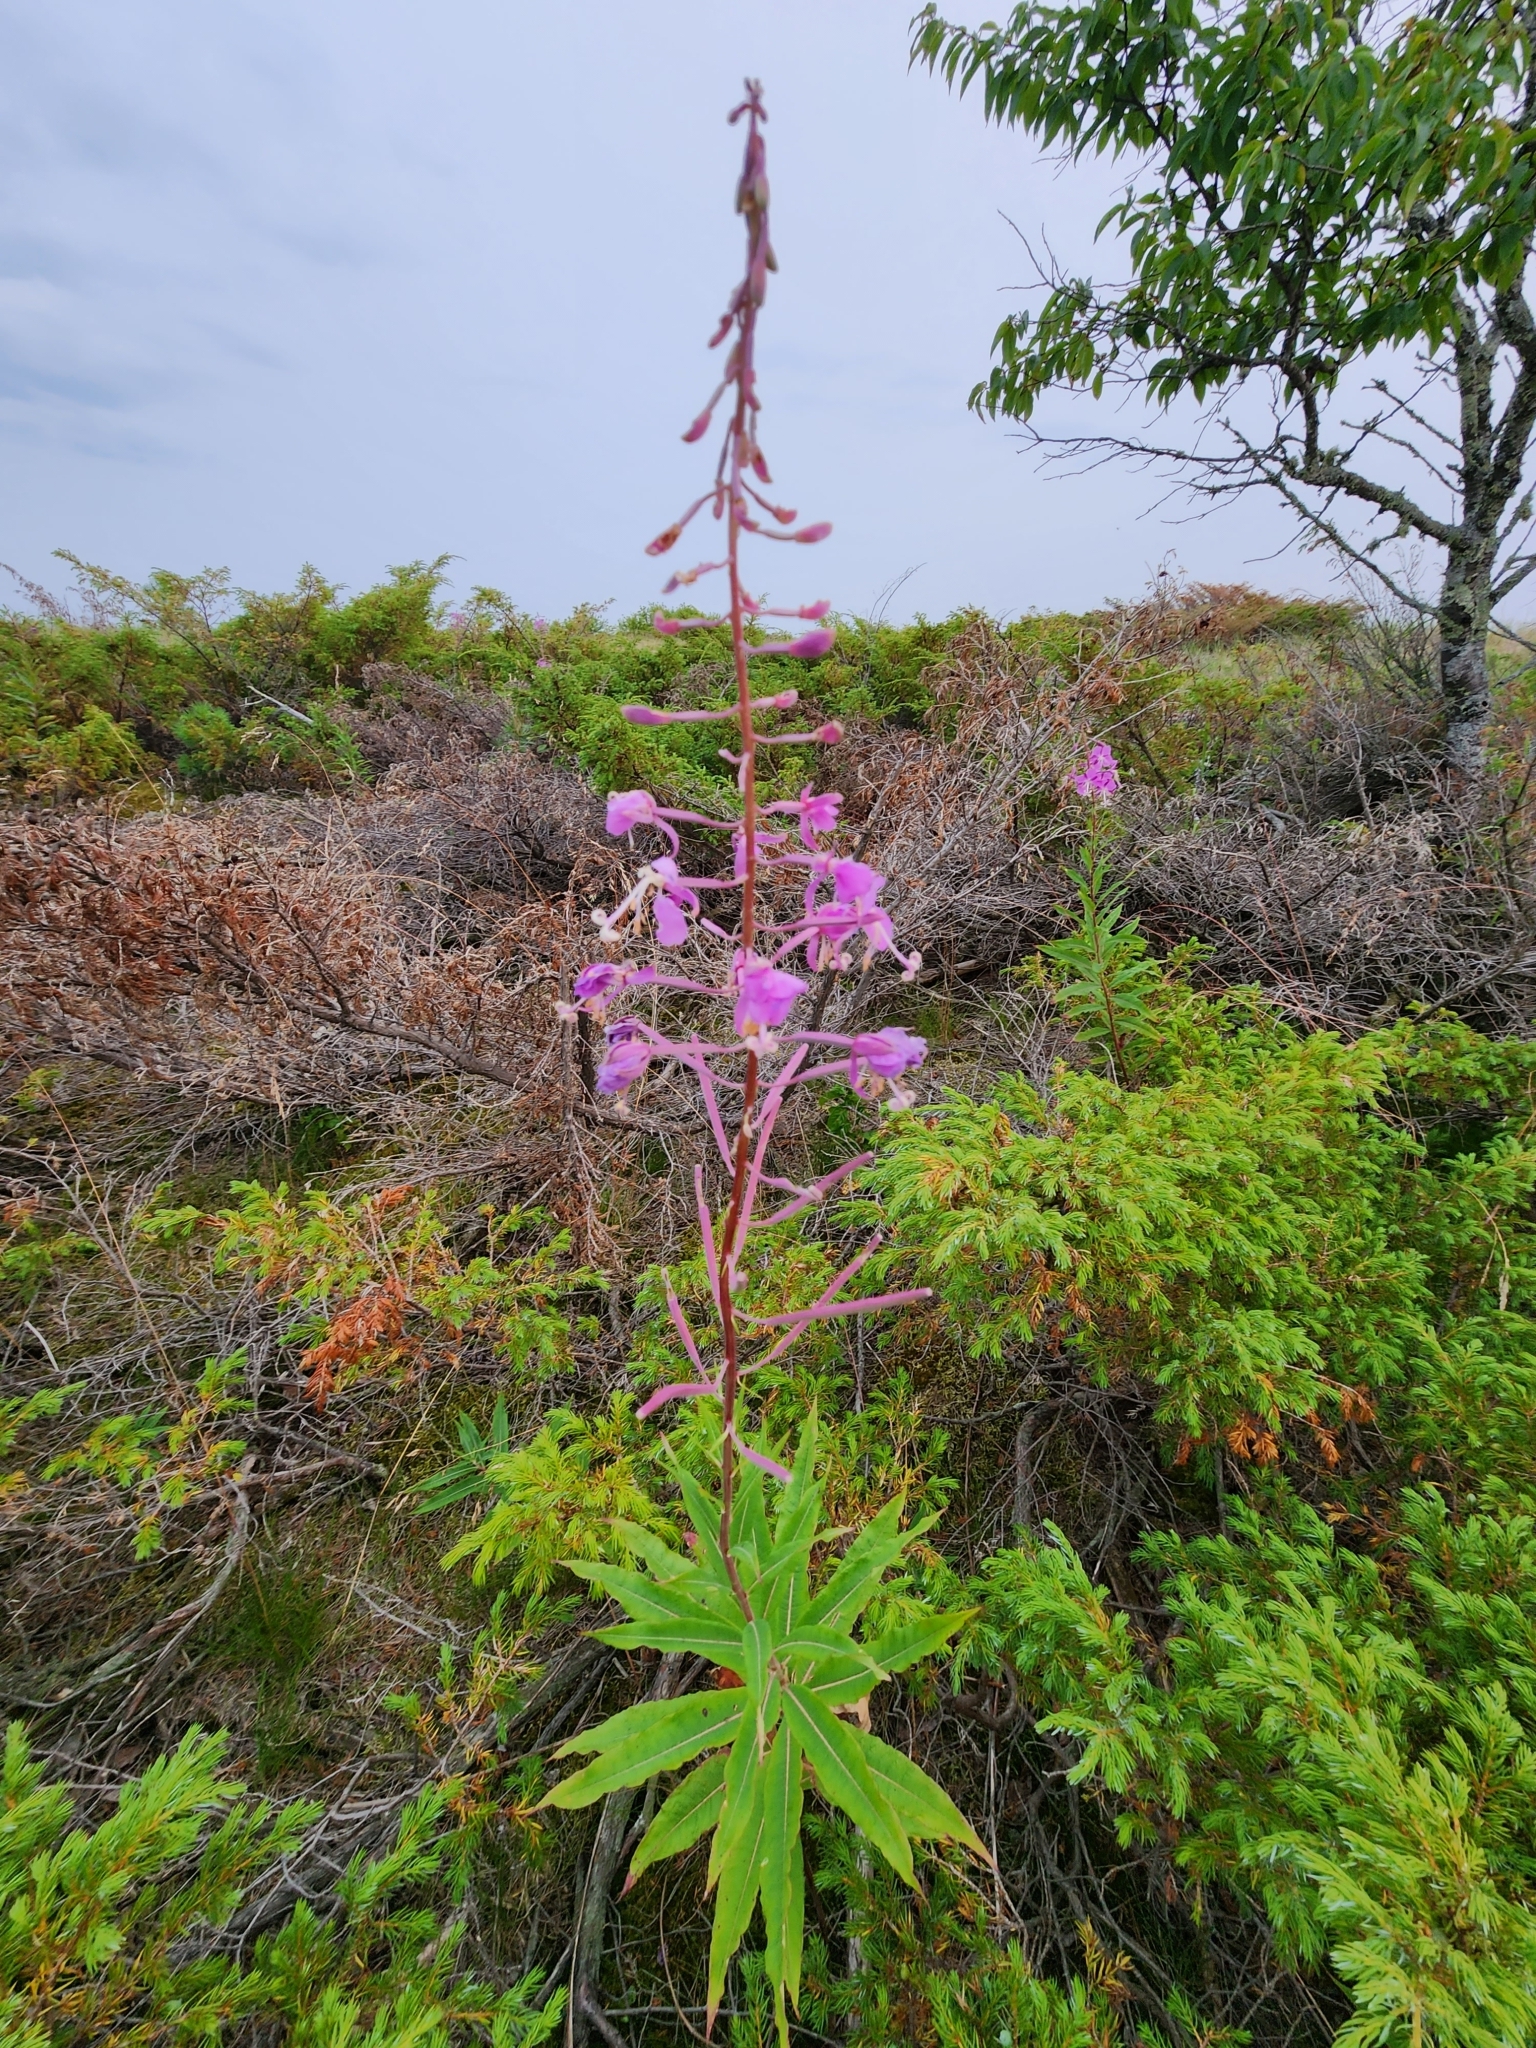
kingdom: Plantae
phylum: Tracheophyta
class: Magnoliopsida
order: Myrtales
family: Onagraceae
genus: Chamaenerion
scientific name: Chamaenerion angustifolium
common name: Fireweed
